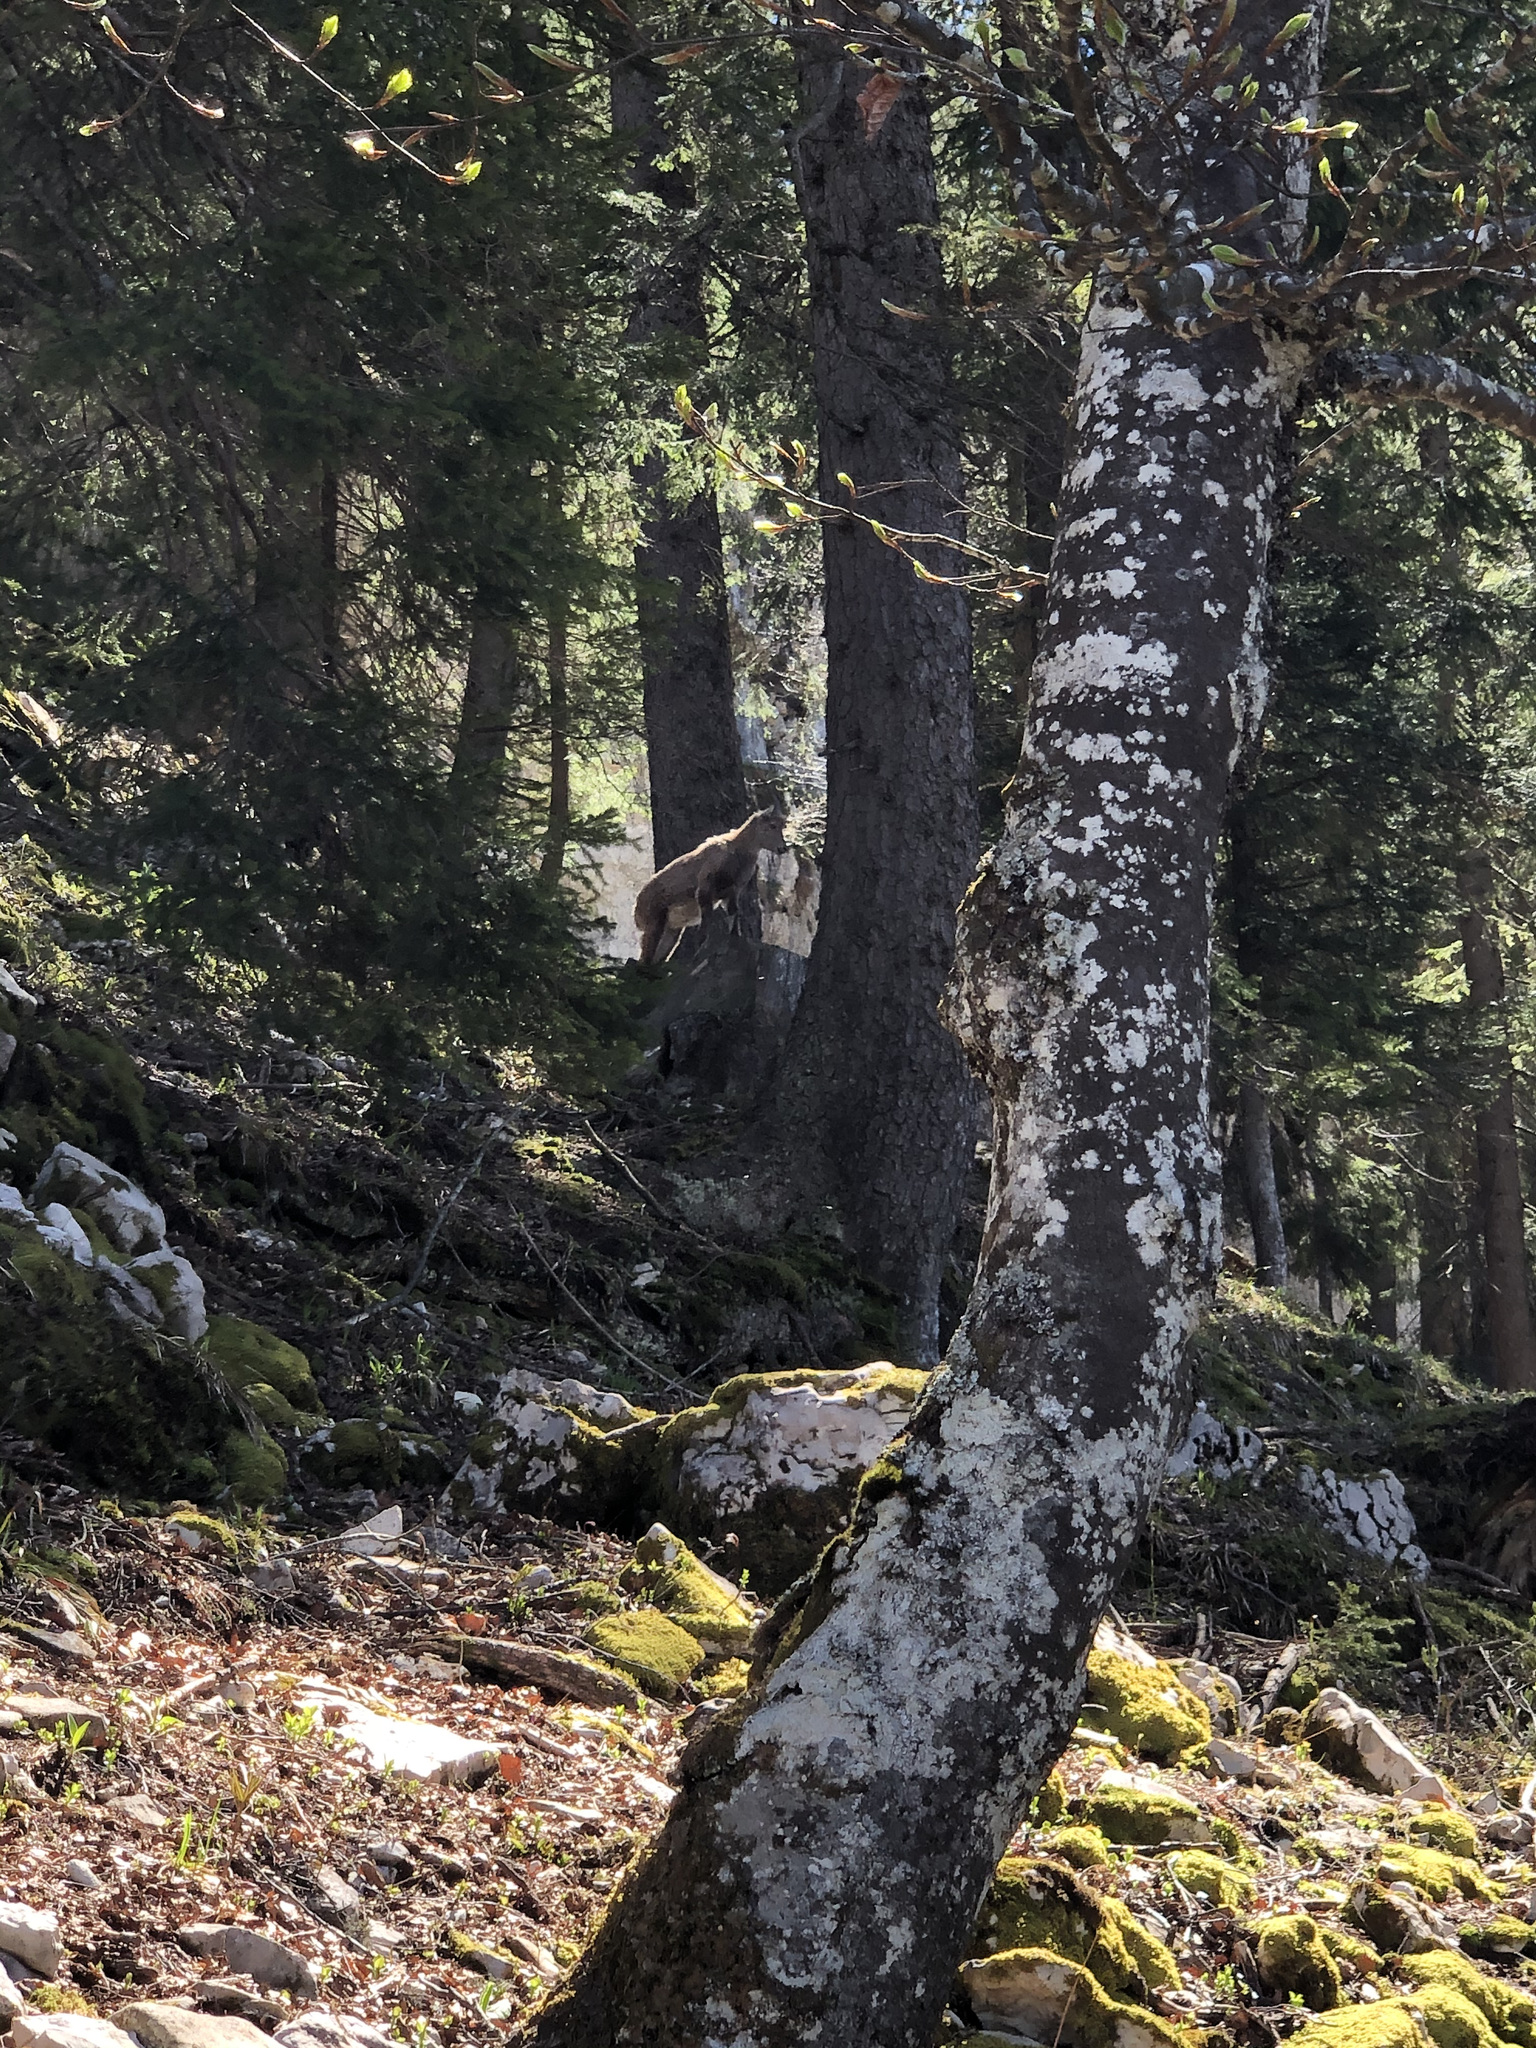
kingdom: Animalia
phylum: Chordata
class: Mammalia
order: Artiodactyla
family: Bovidae
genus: Capra
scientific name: Capra ibex
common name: Alpine ibex
